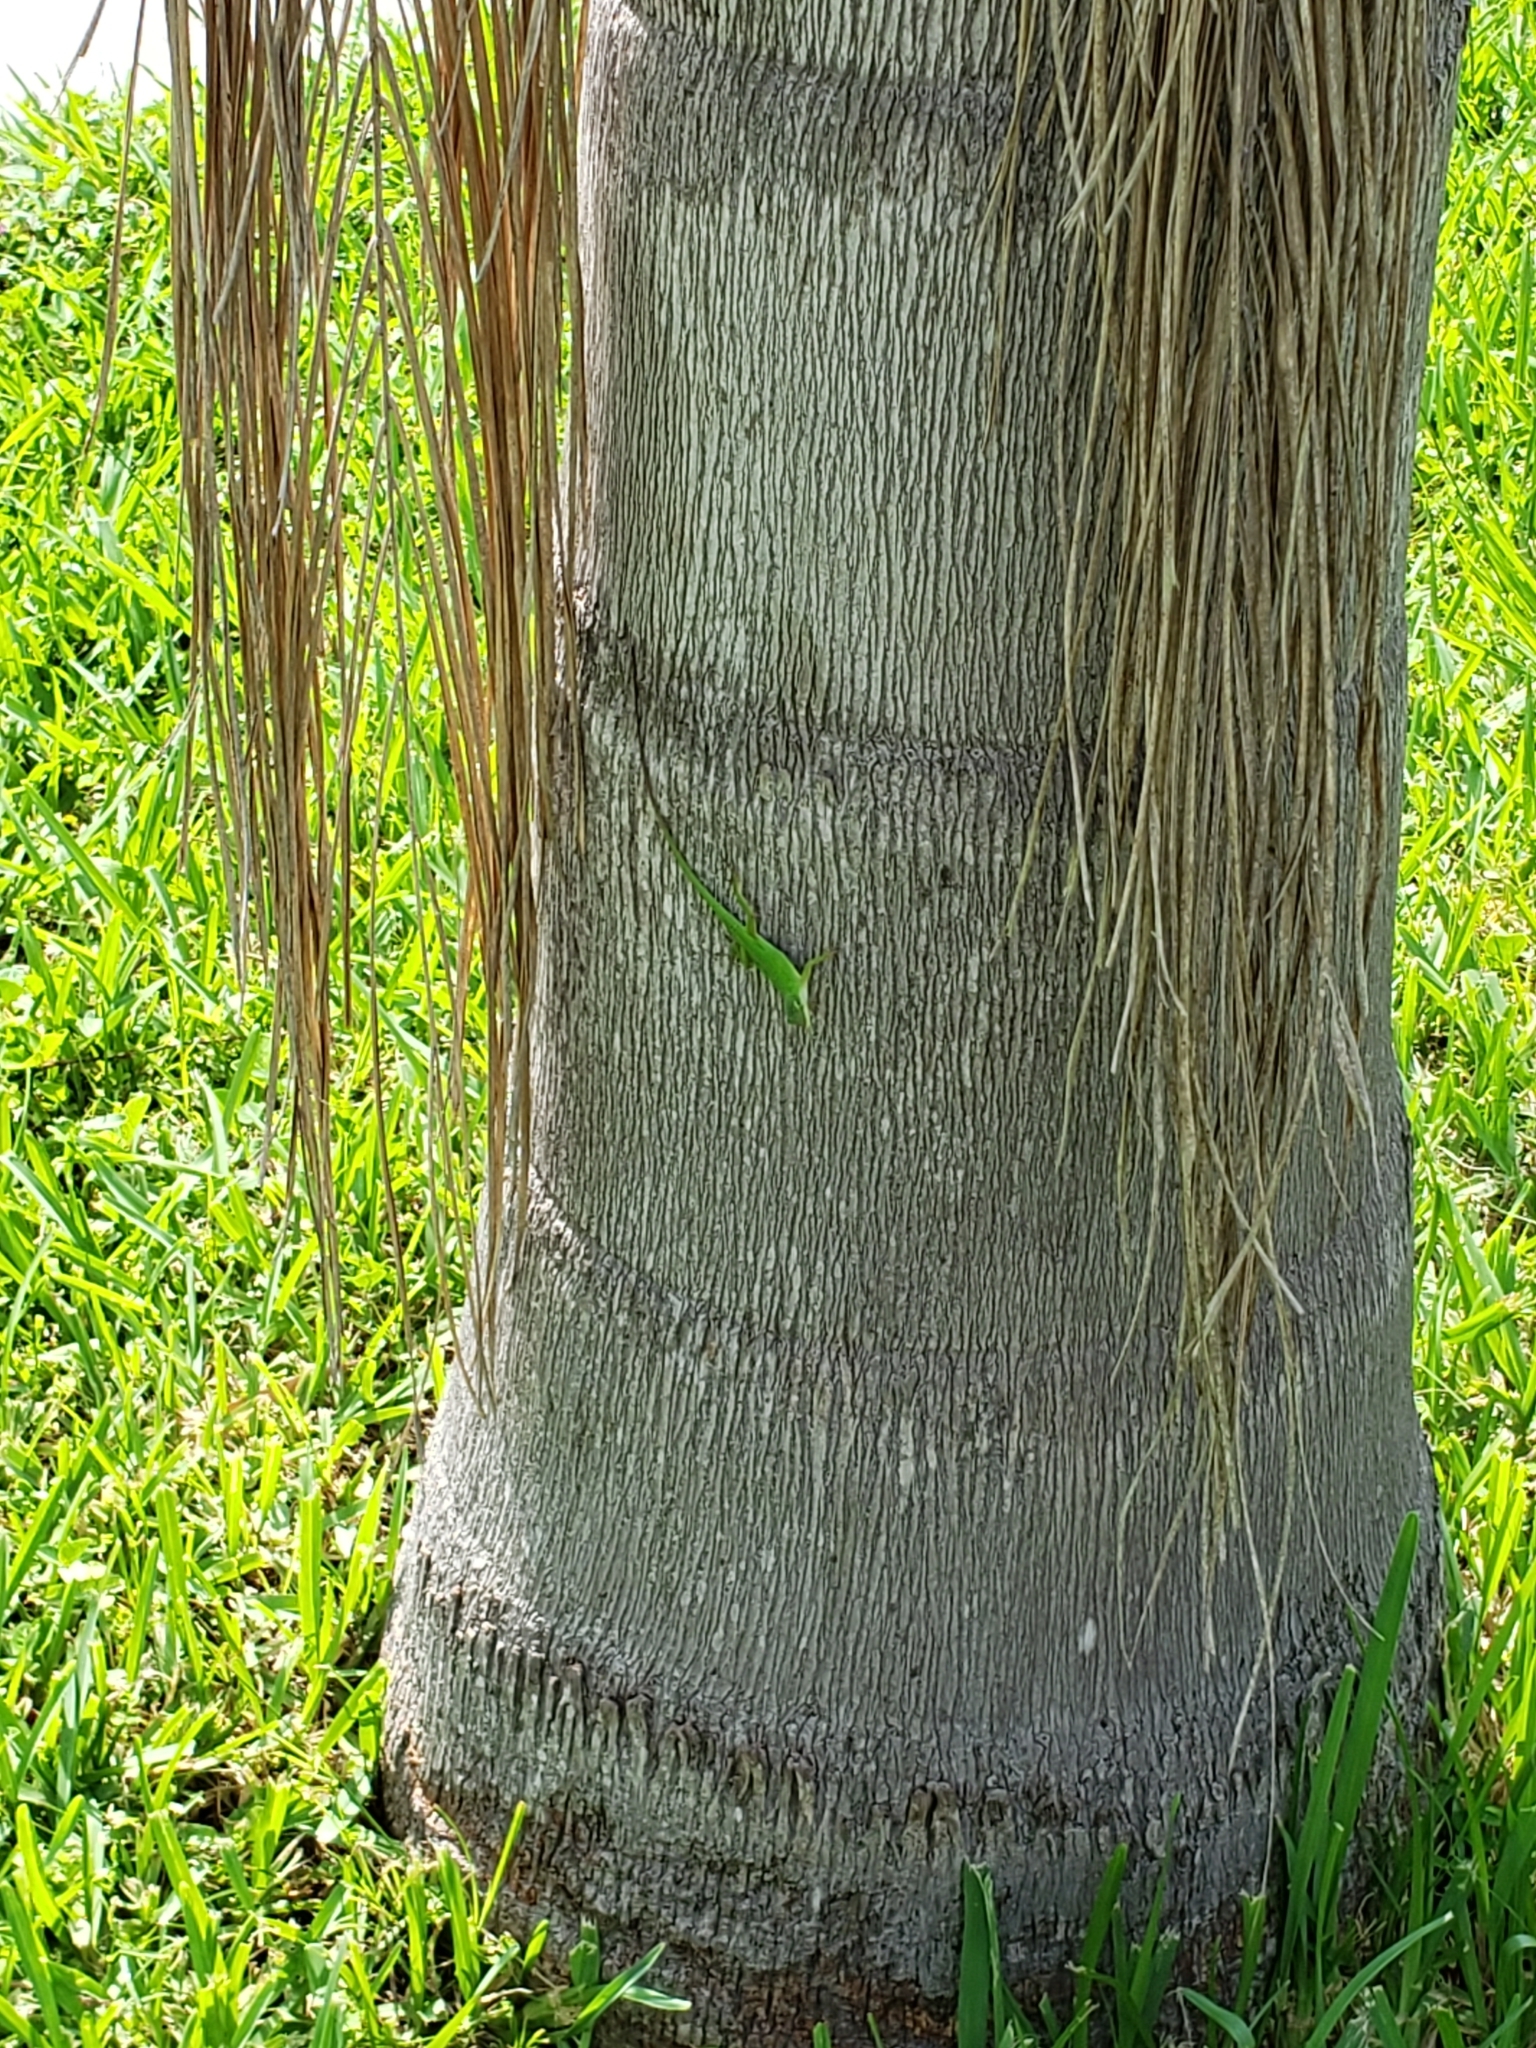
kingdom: Animalia
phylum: Chordata
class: Squamata
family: Dactyloidae
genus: Anolis
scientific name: Anolis carolinensis
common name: Green anole
